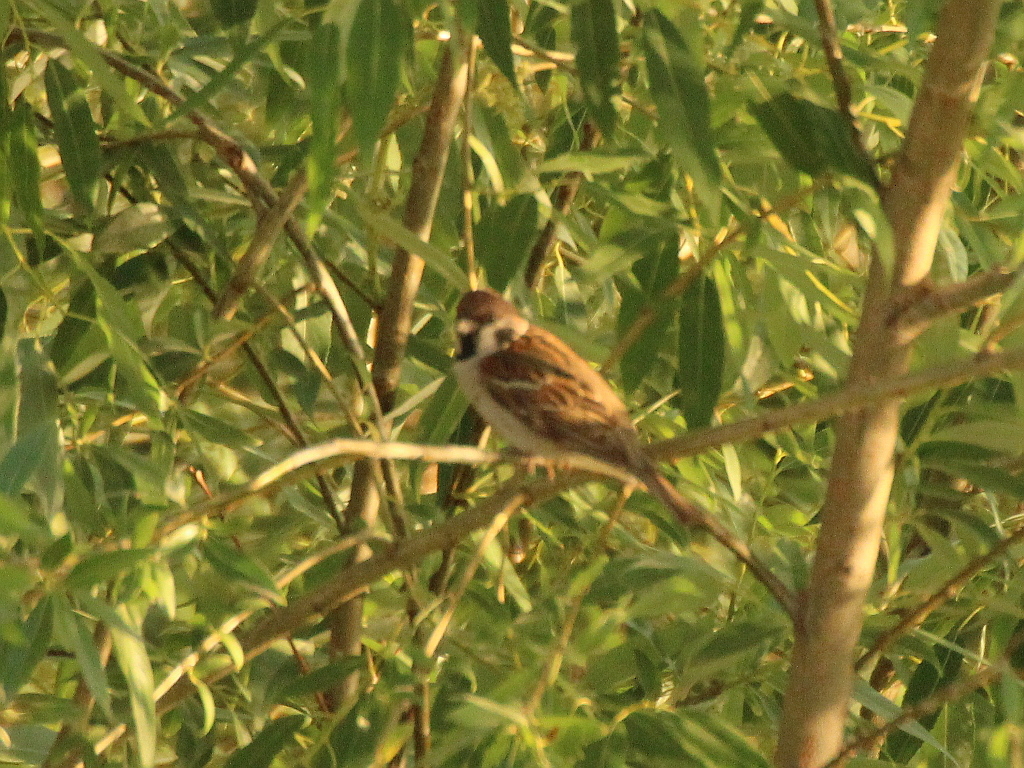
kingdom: Animalia
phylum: Chordata
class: Aves
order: Passeriformes
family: Passeridae
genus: Passer
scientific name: Passer montanus
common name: Eurasian tree sparrow
